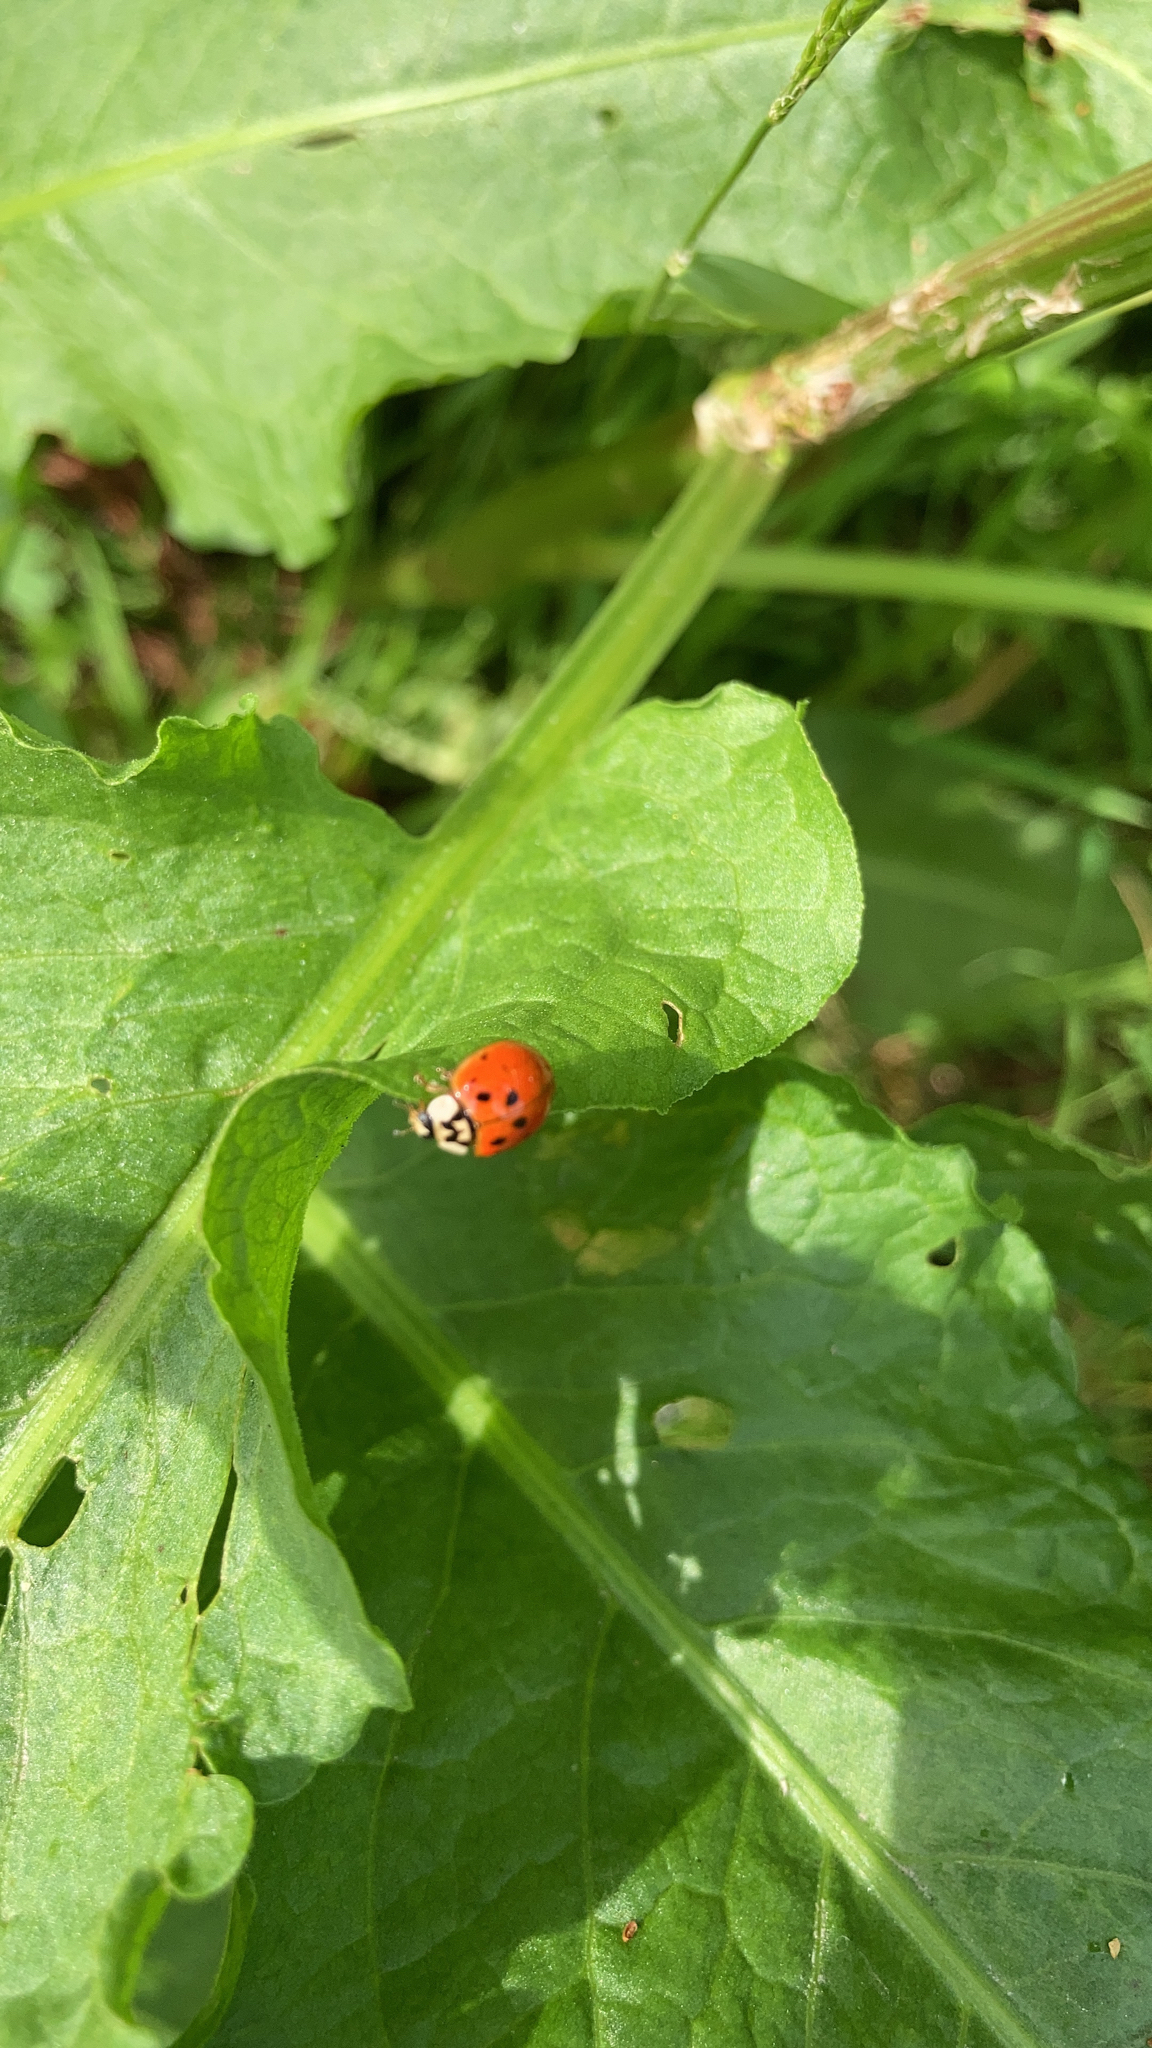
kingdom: Animalia
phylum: Arthropoda
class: Insecta
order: Coleoptera
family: Coccinellidae
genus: Harmonia
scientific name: Harmonia axyridis
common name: Harlequin ladybird
